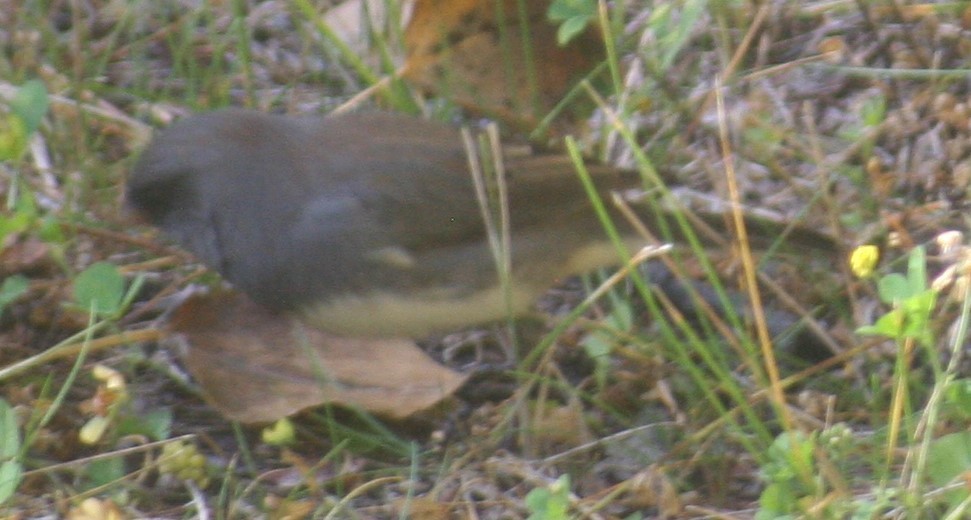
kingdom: Animalia
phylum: Chordata
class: Aves
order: Passeriformes
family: Passerellidae
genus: Junco
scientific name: Junco hyemalis
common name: Dark-eyed junco
